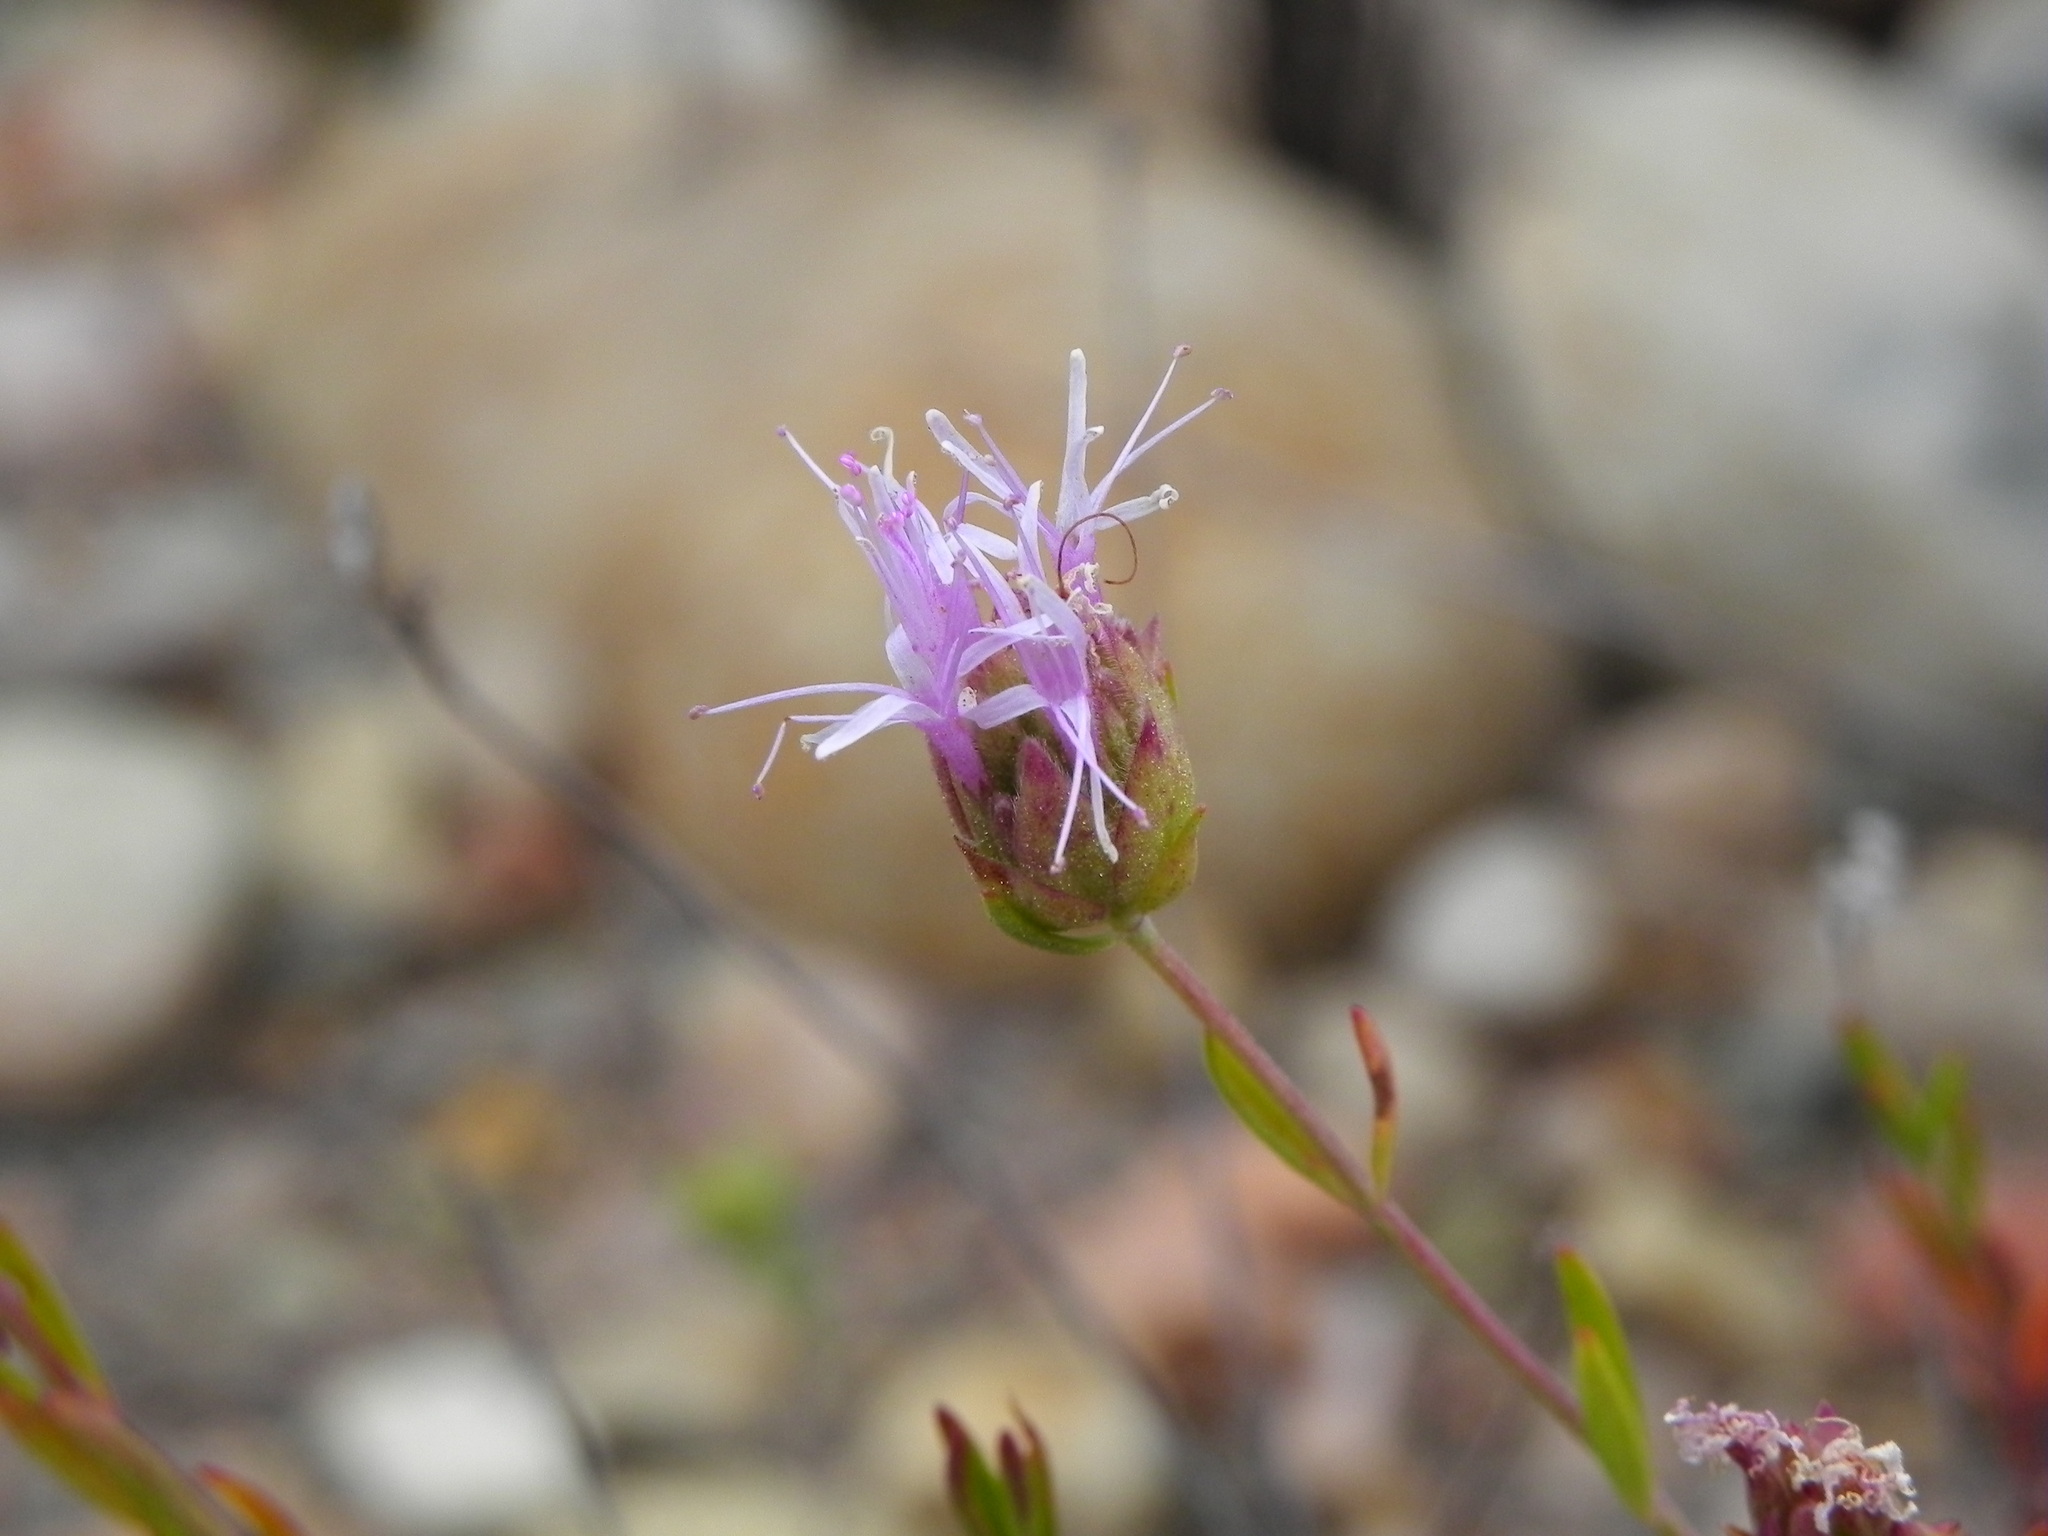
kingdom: Plantae
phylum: Tracheophyta
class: Magnoliopsida
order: Lamiales
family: Lamiaceae
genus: Monardella
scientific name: Monardella viminea
